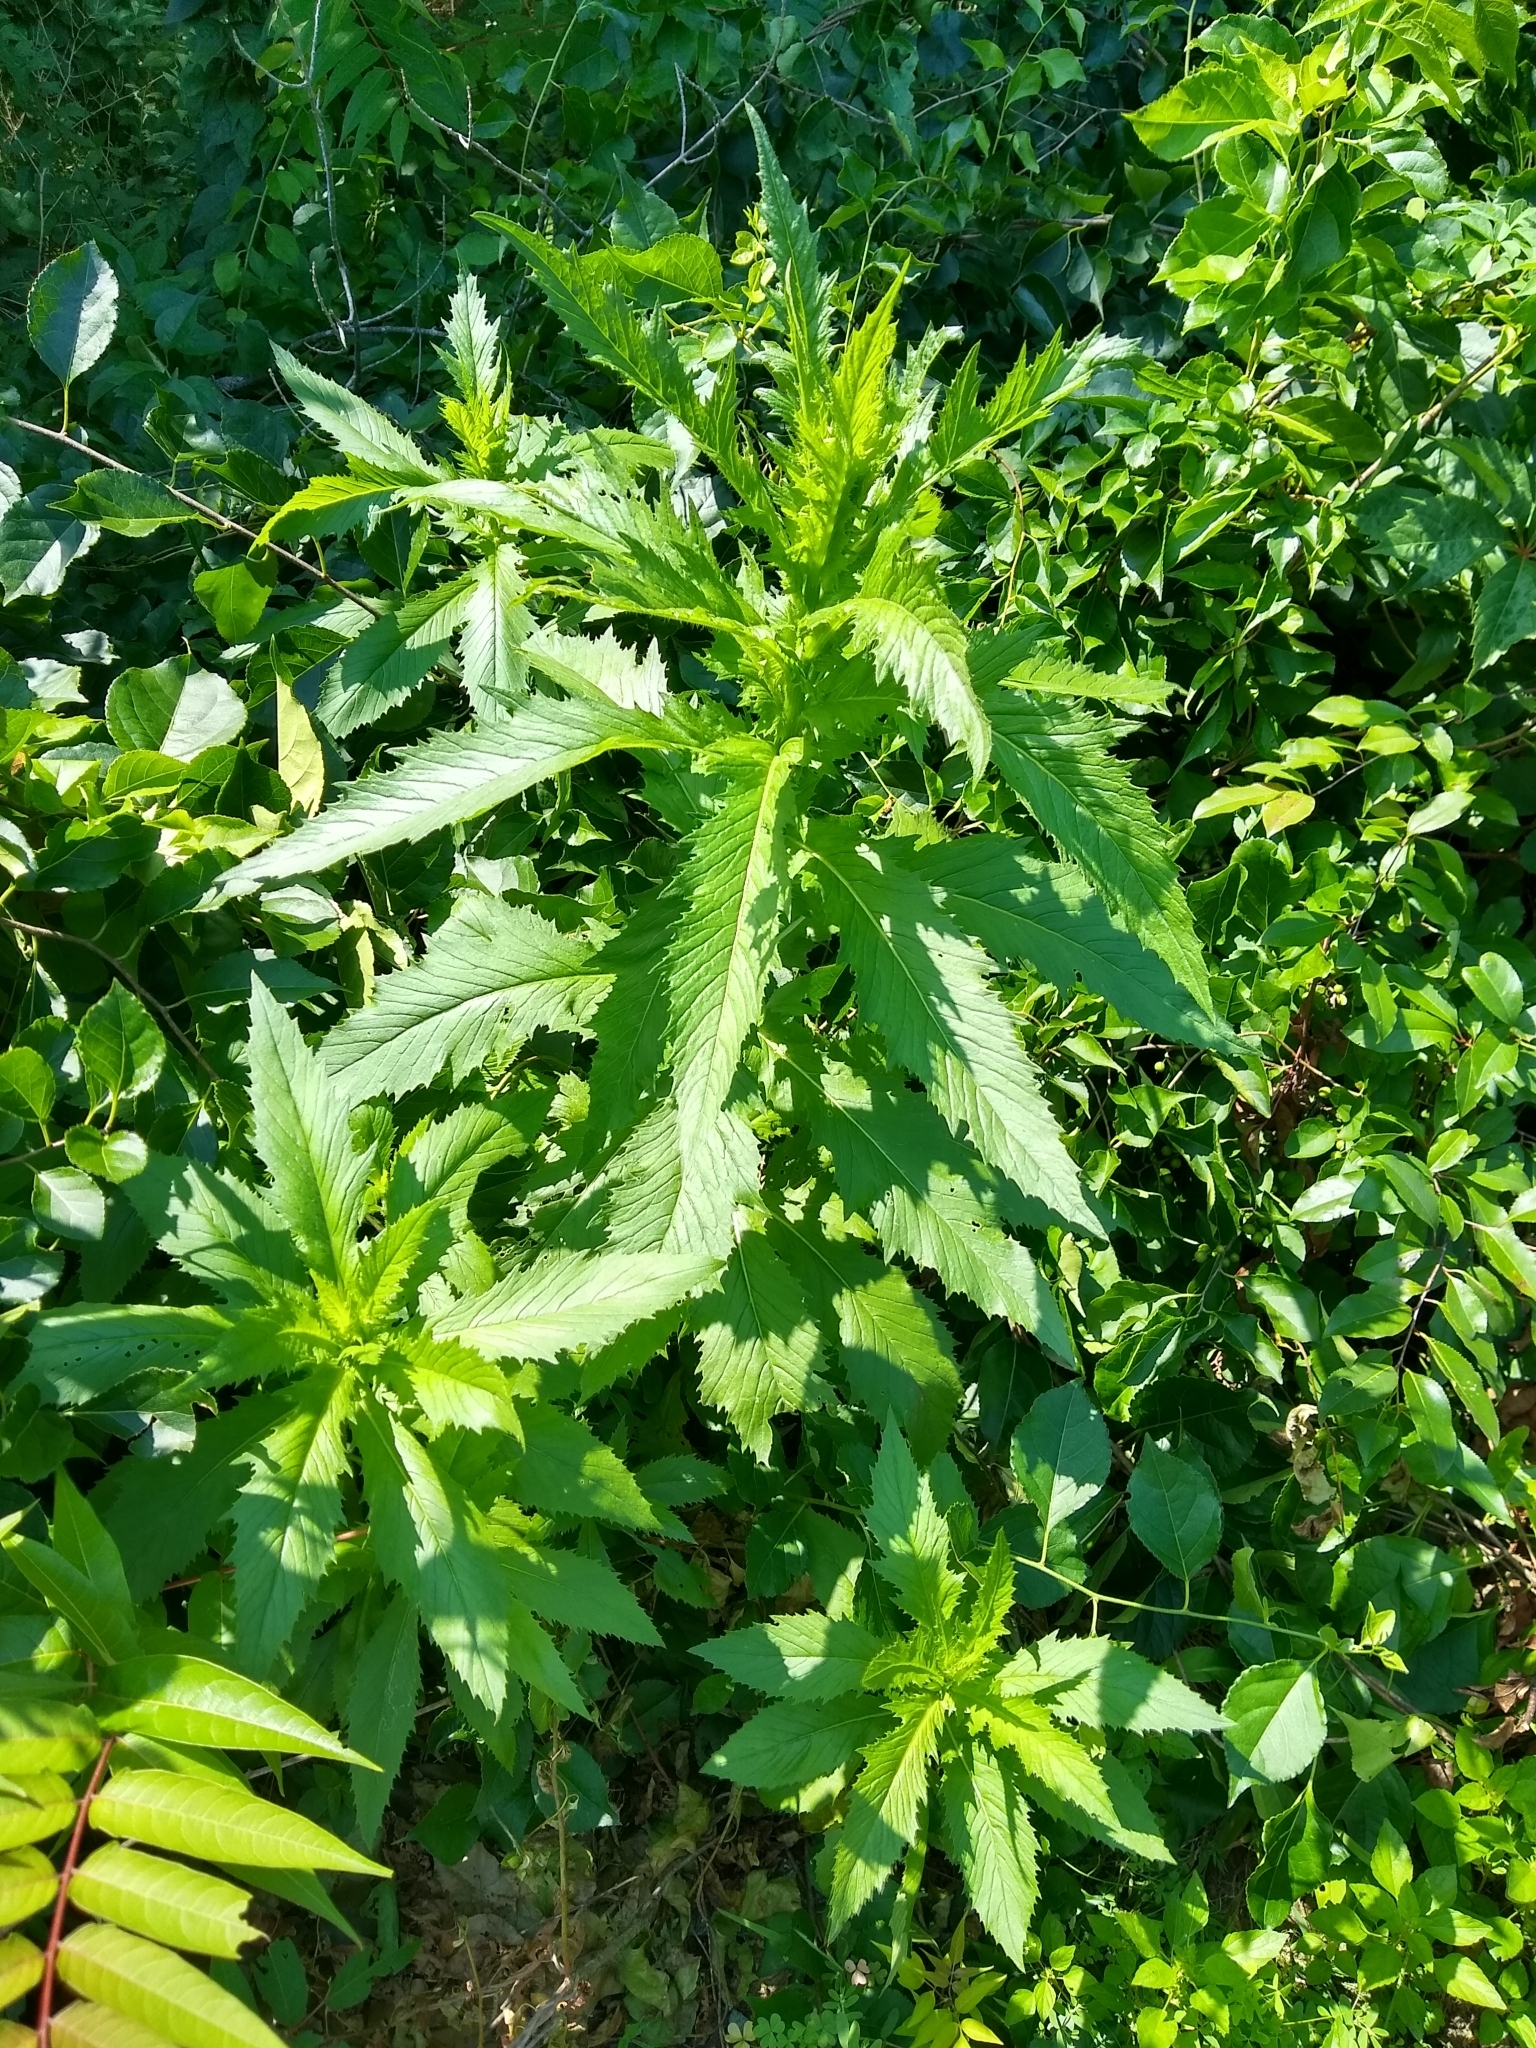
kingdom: Plantae
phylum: Tracheophyta
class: Magnoliopsida
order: Asterales
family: Asteraceae
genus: Erechtites
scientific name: Erechtites hieraciifolius
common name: American burnweed
